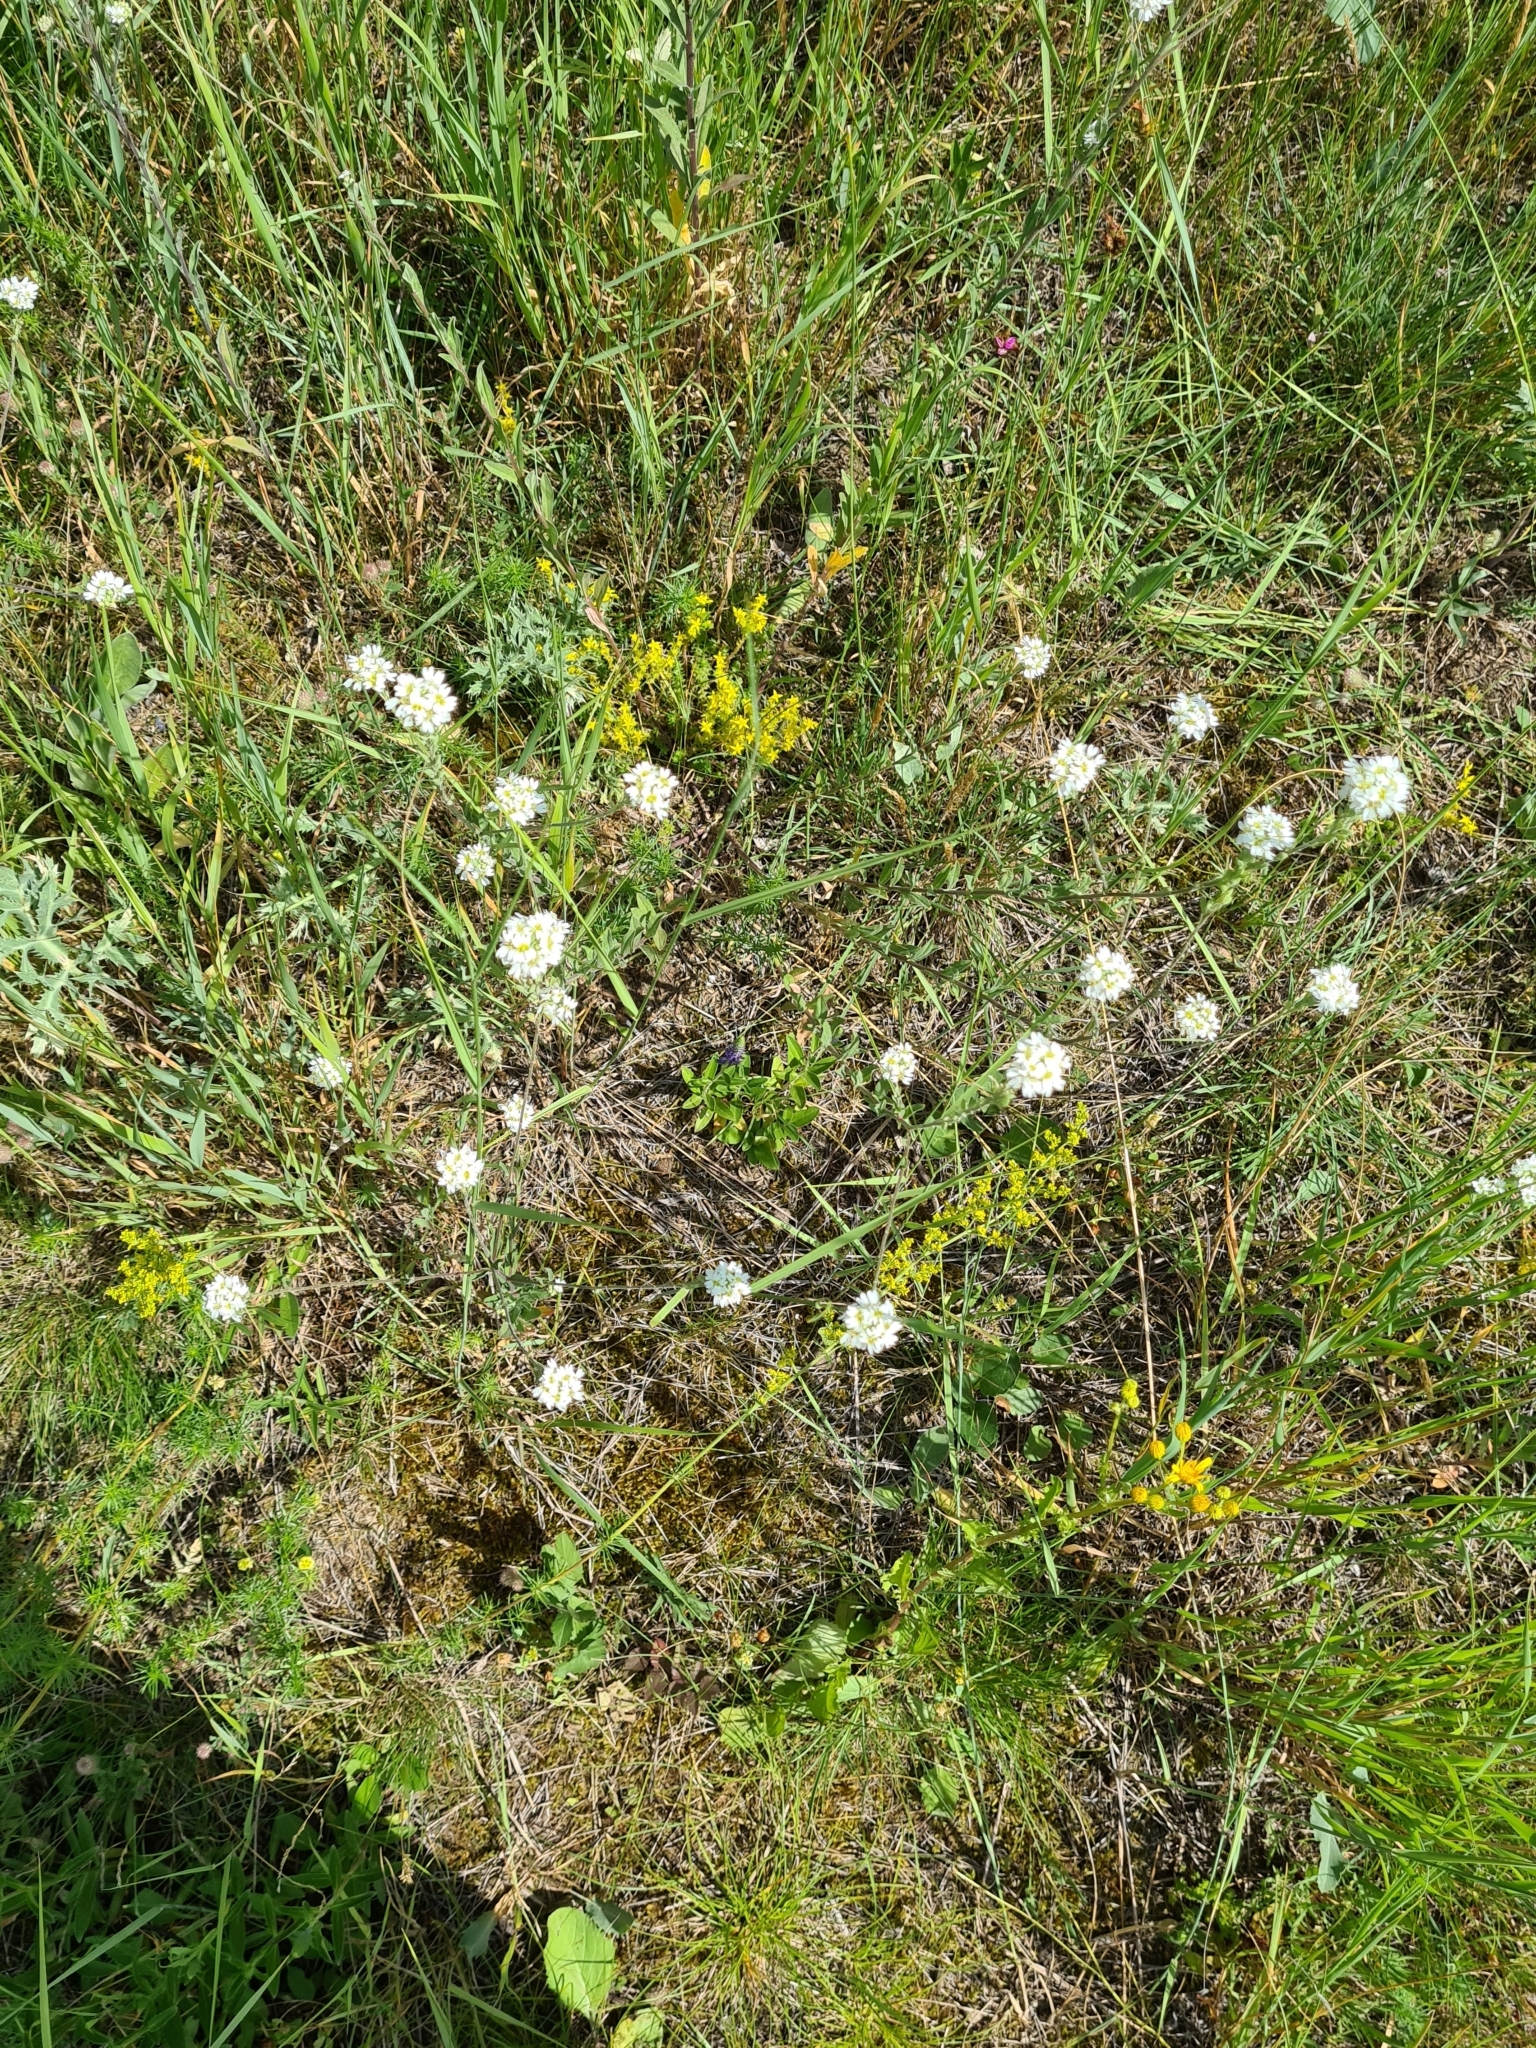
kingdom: Plantae
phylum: Tracheophyta
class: Magnoliopsida
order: Brassicales
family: Brassicaceae
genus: Berteroa
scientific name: Berteroa incana
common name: Hoary alison
